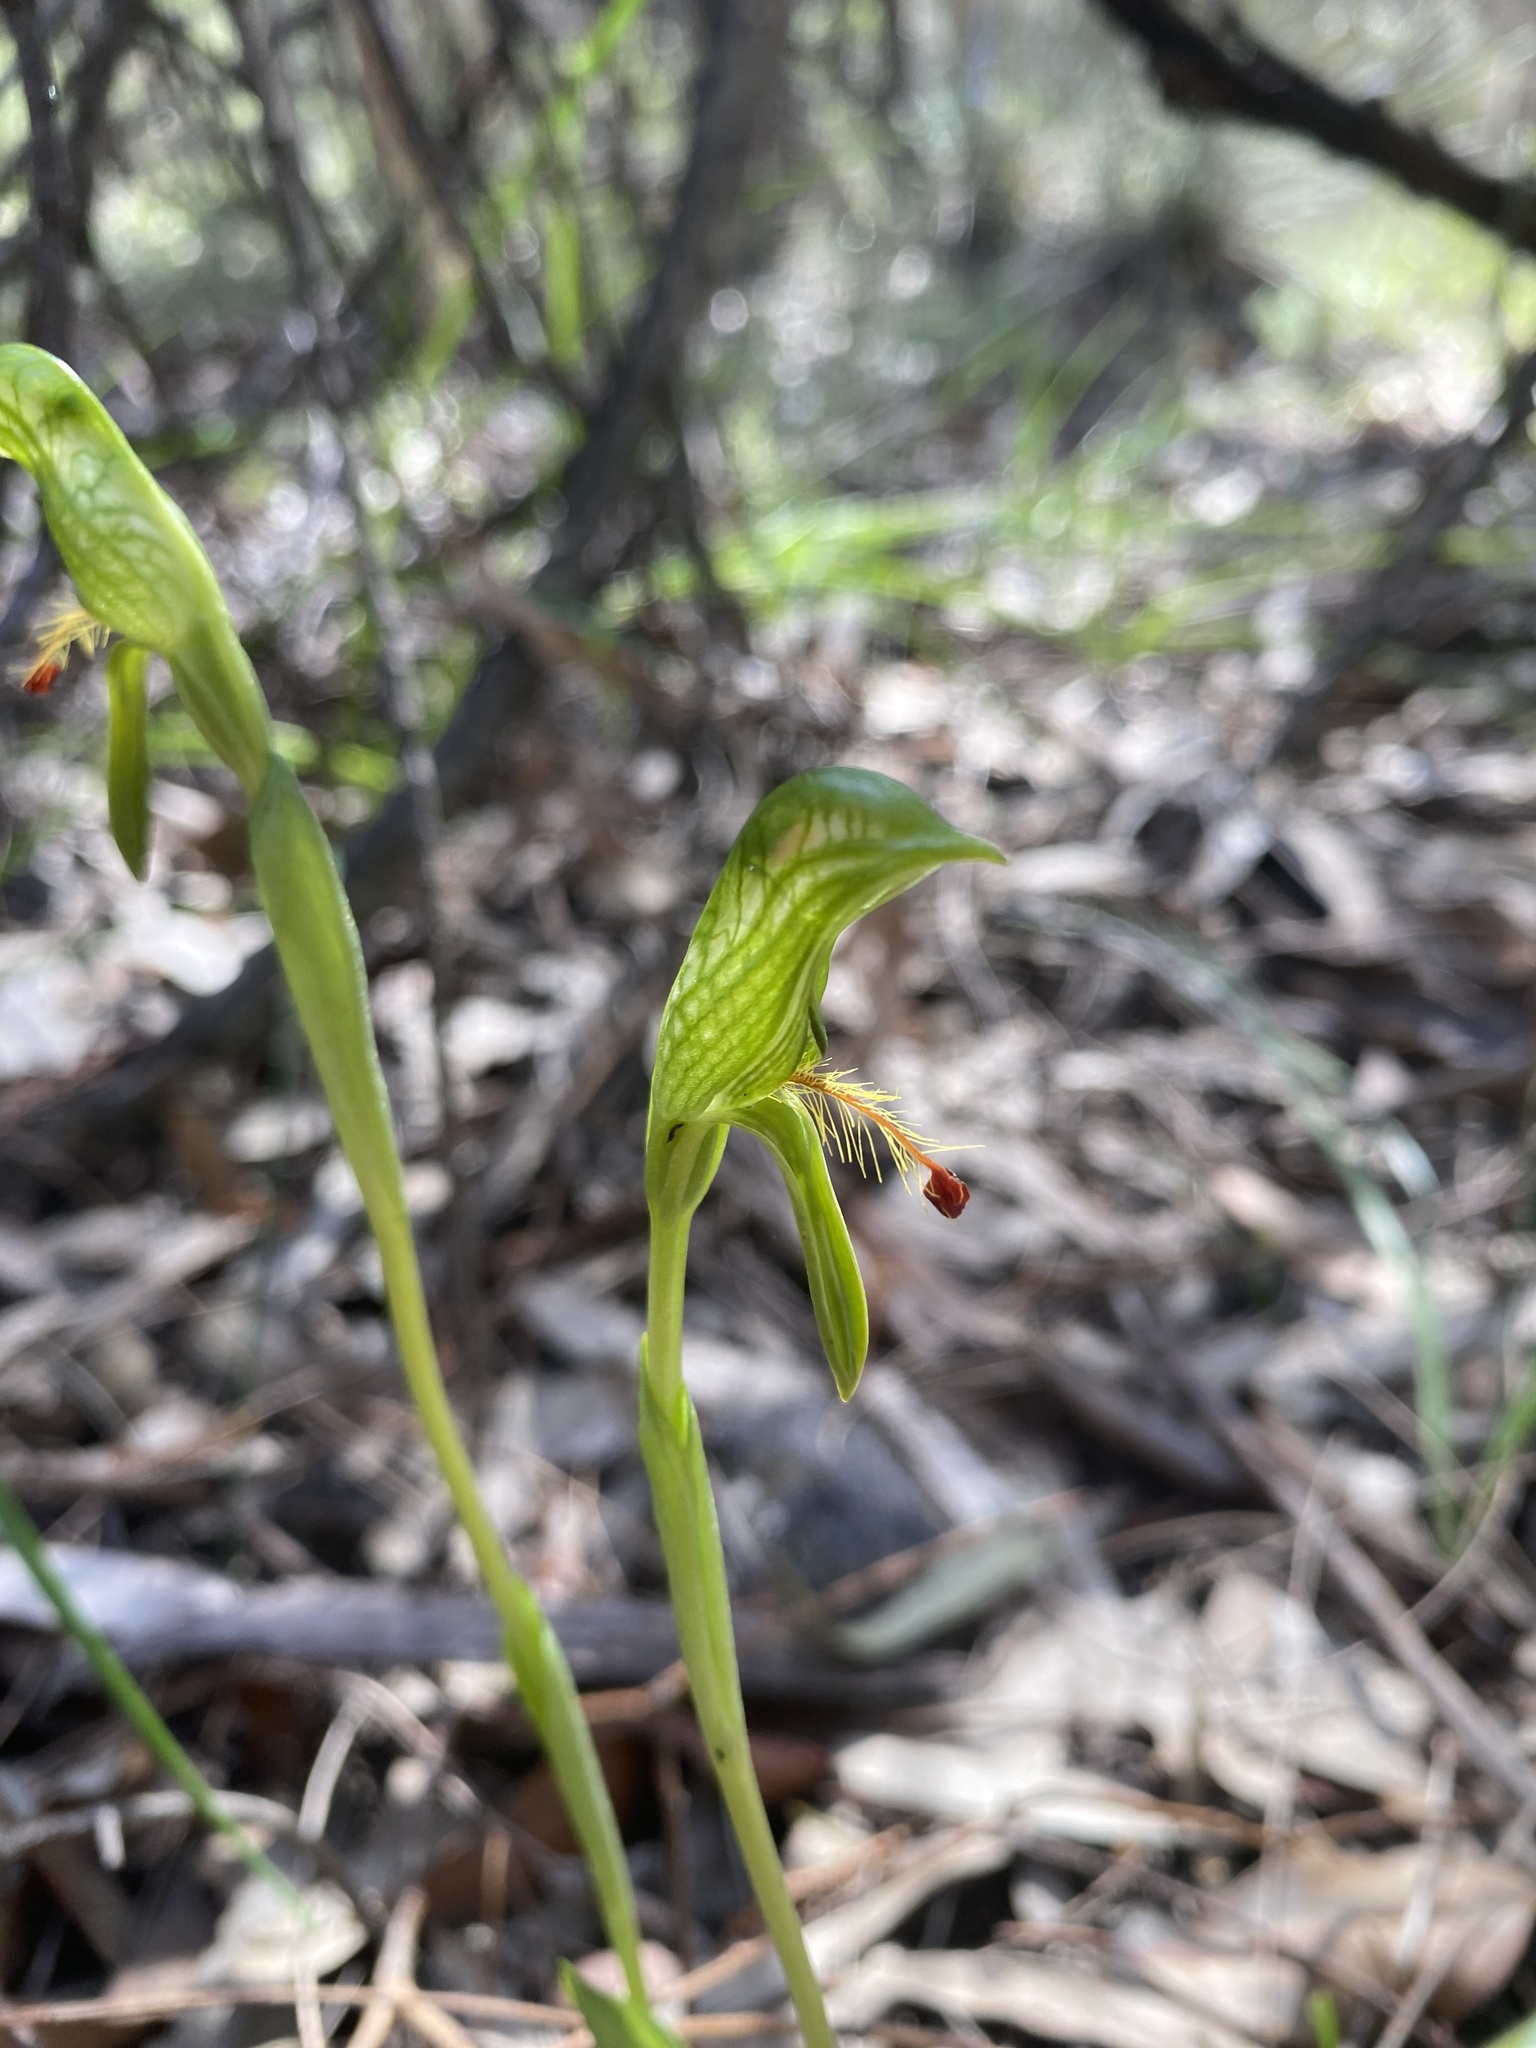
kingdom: Plantae
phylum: Tracheophyta
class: Liliopsida
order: Asparagales
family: Orchidaceae
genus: Pterostylis
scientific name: Pterostylis foliacea
